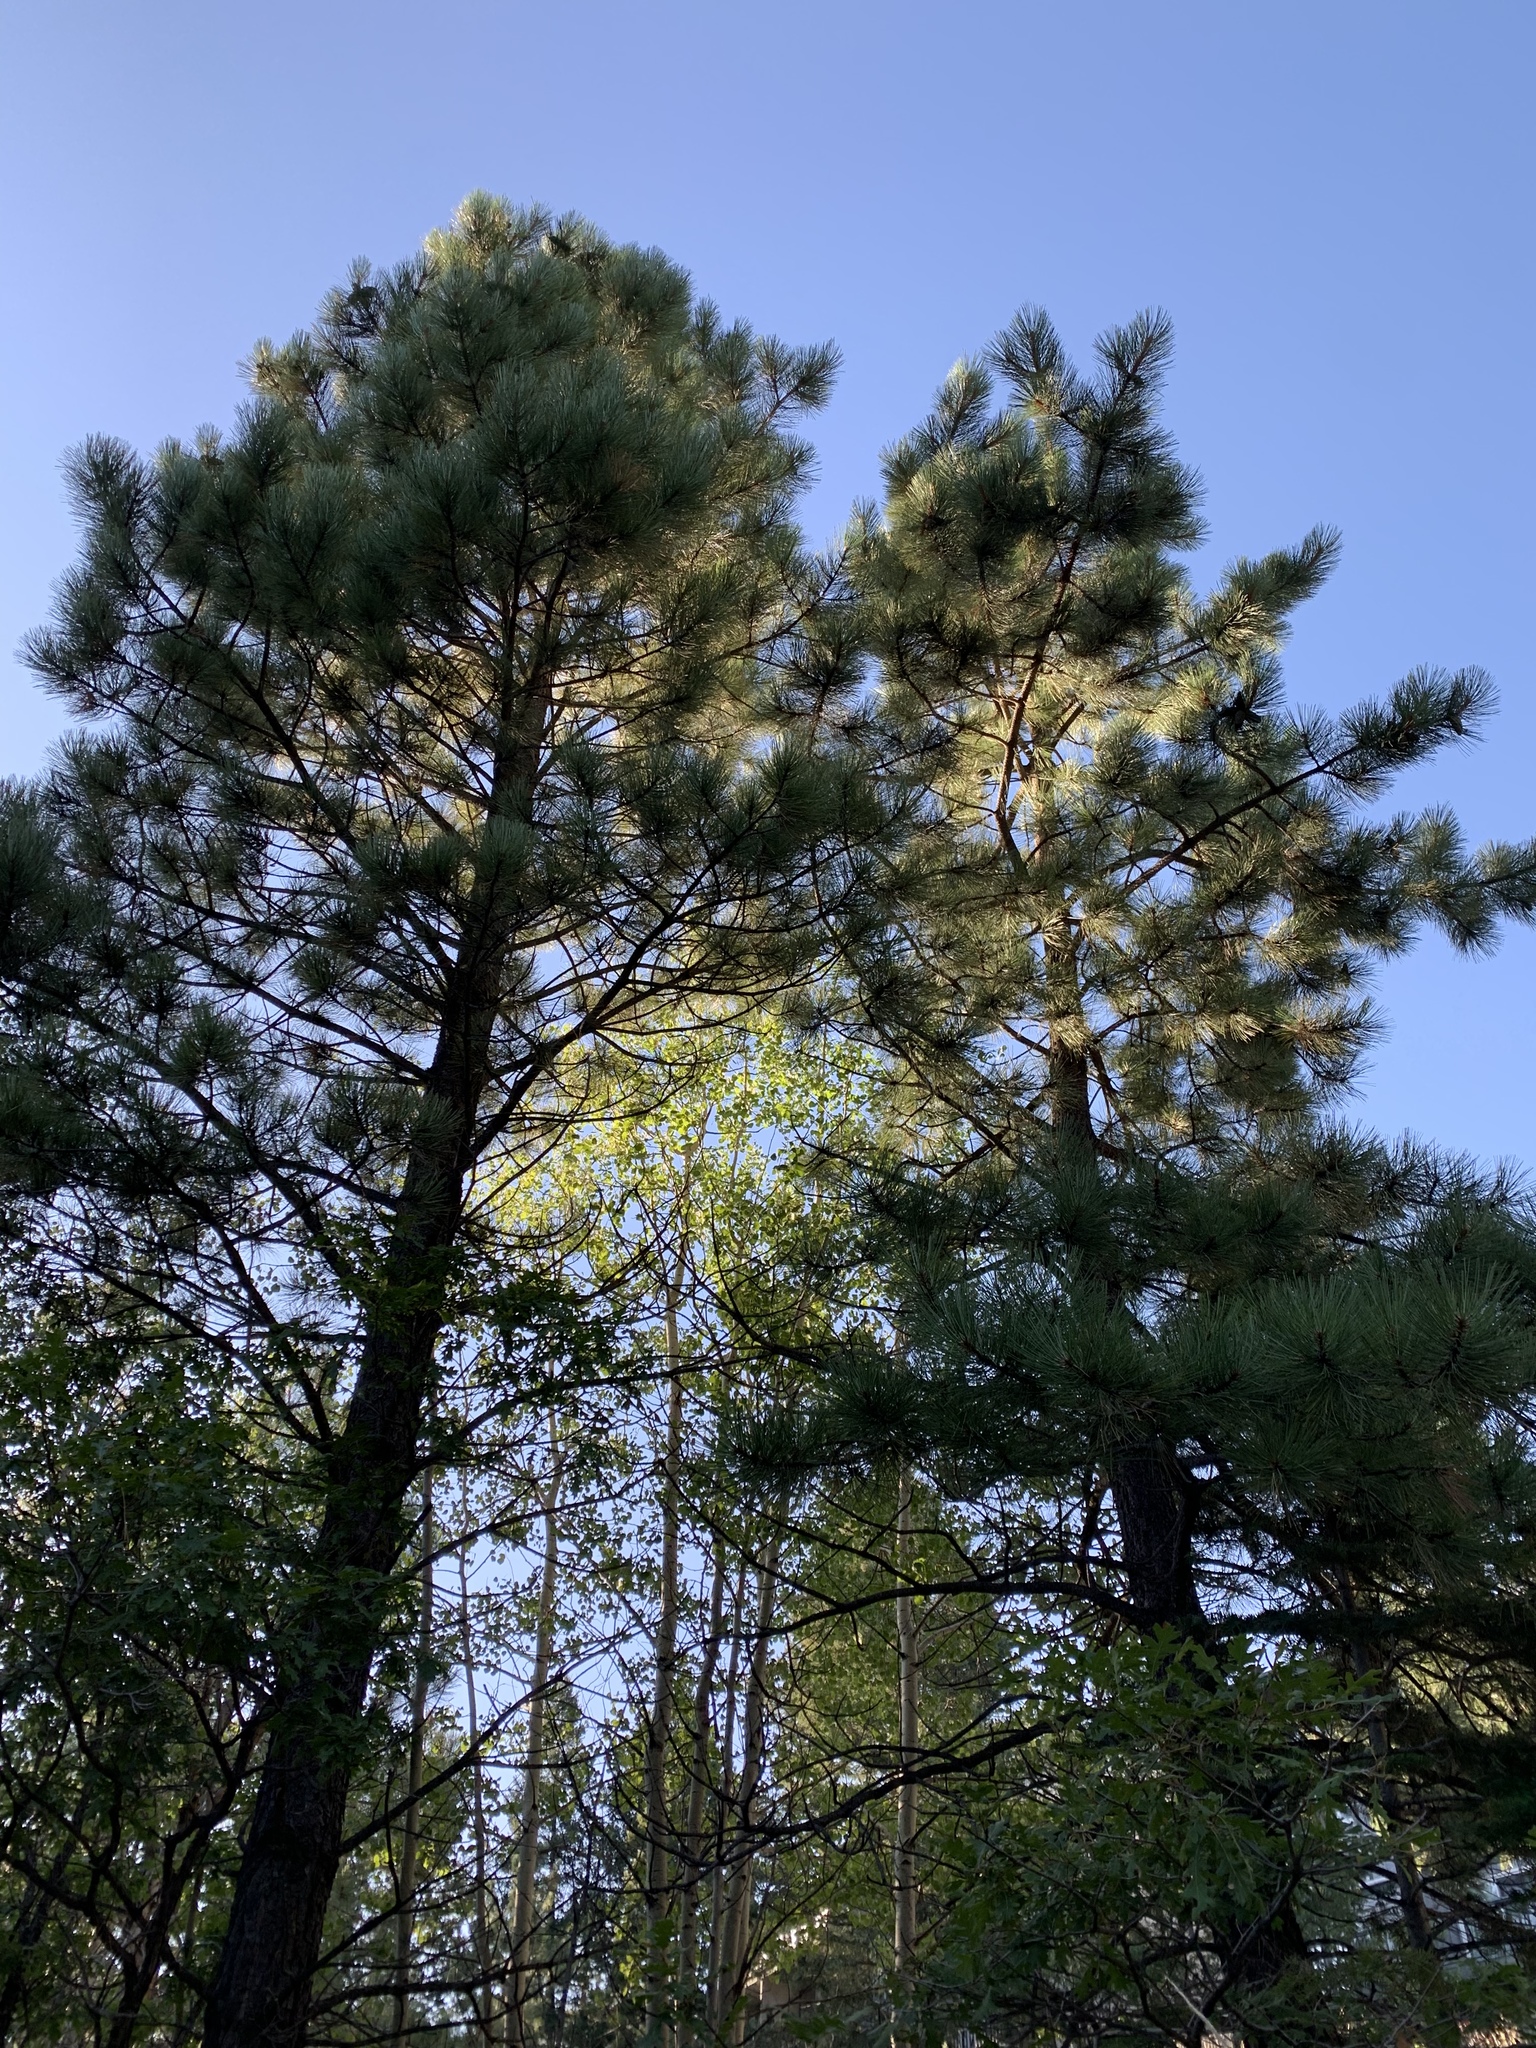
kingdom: Plantae
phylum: Tracheophyta
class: Pinopsida
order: Pinales
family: Pinaceae
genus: Pinus
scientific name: Pinus ponderosa
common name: Western yellow-pine
